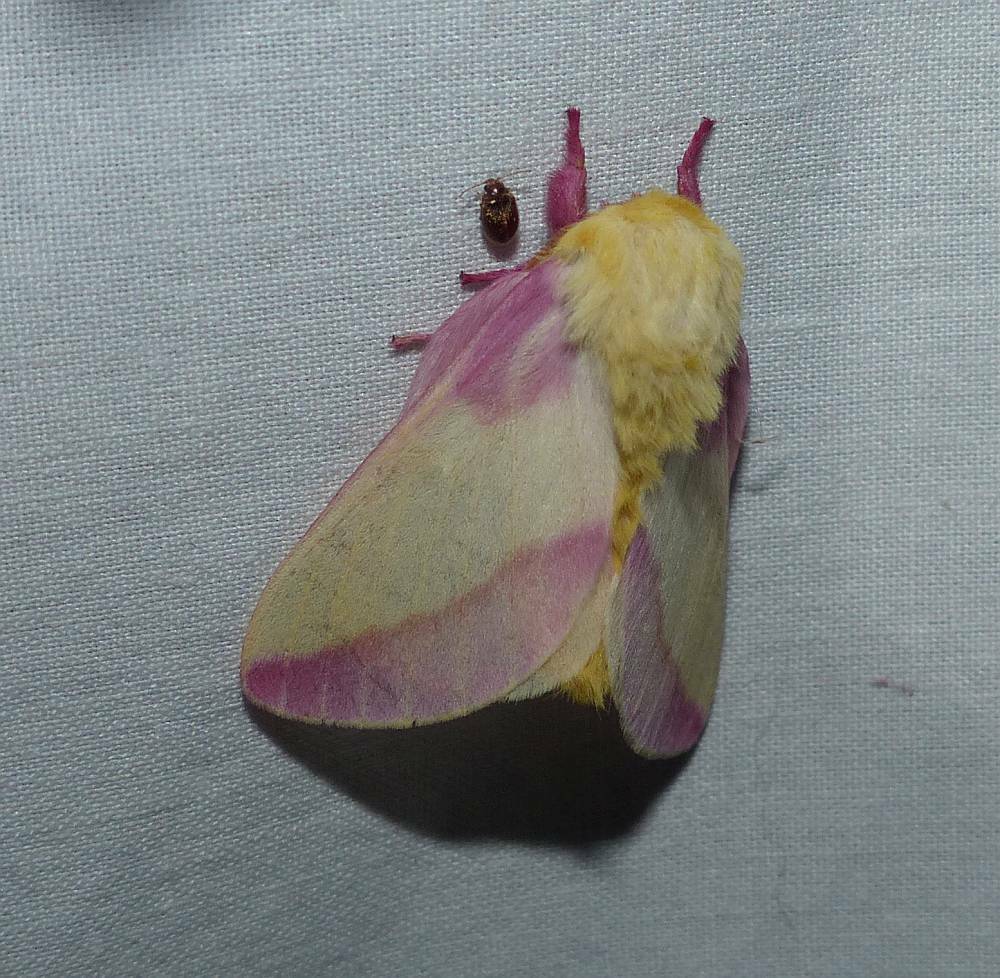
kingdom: Animalia
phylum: Arthropoda
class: Insecta
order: Lepidoptera
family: Saturniidae
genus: Dryocampa
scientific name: Dryocampa rubicunda
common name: Rosy maple moth
